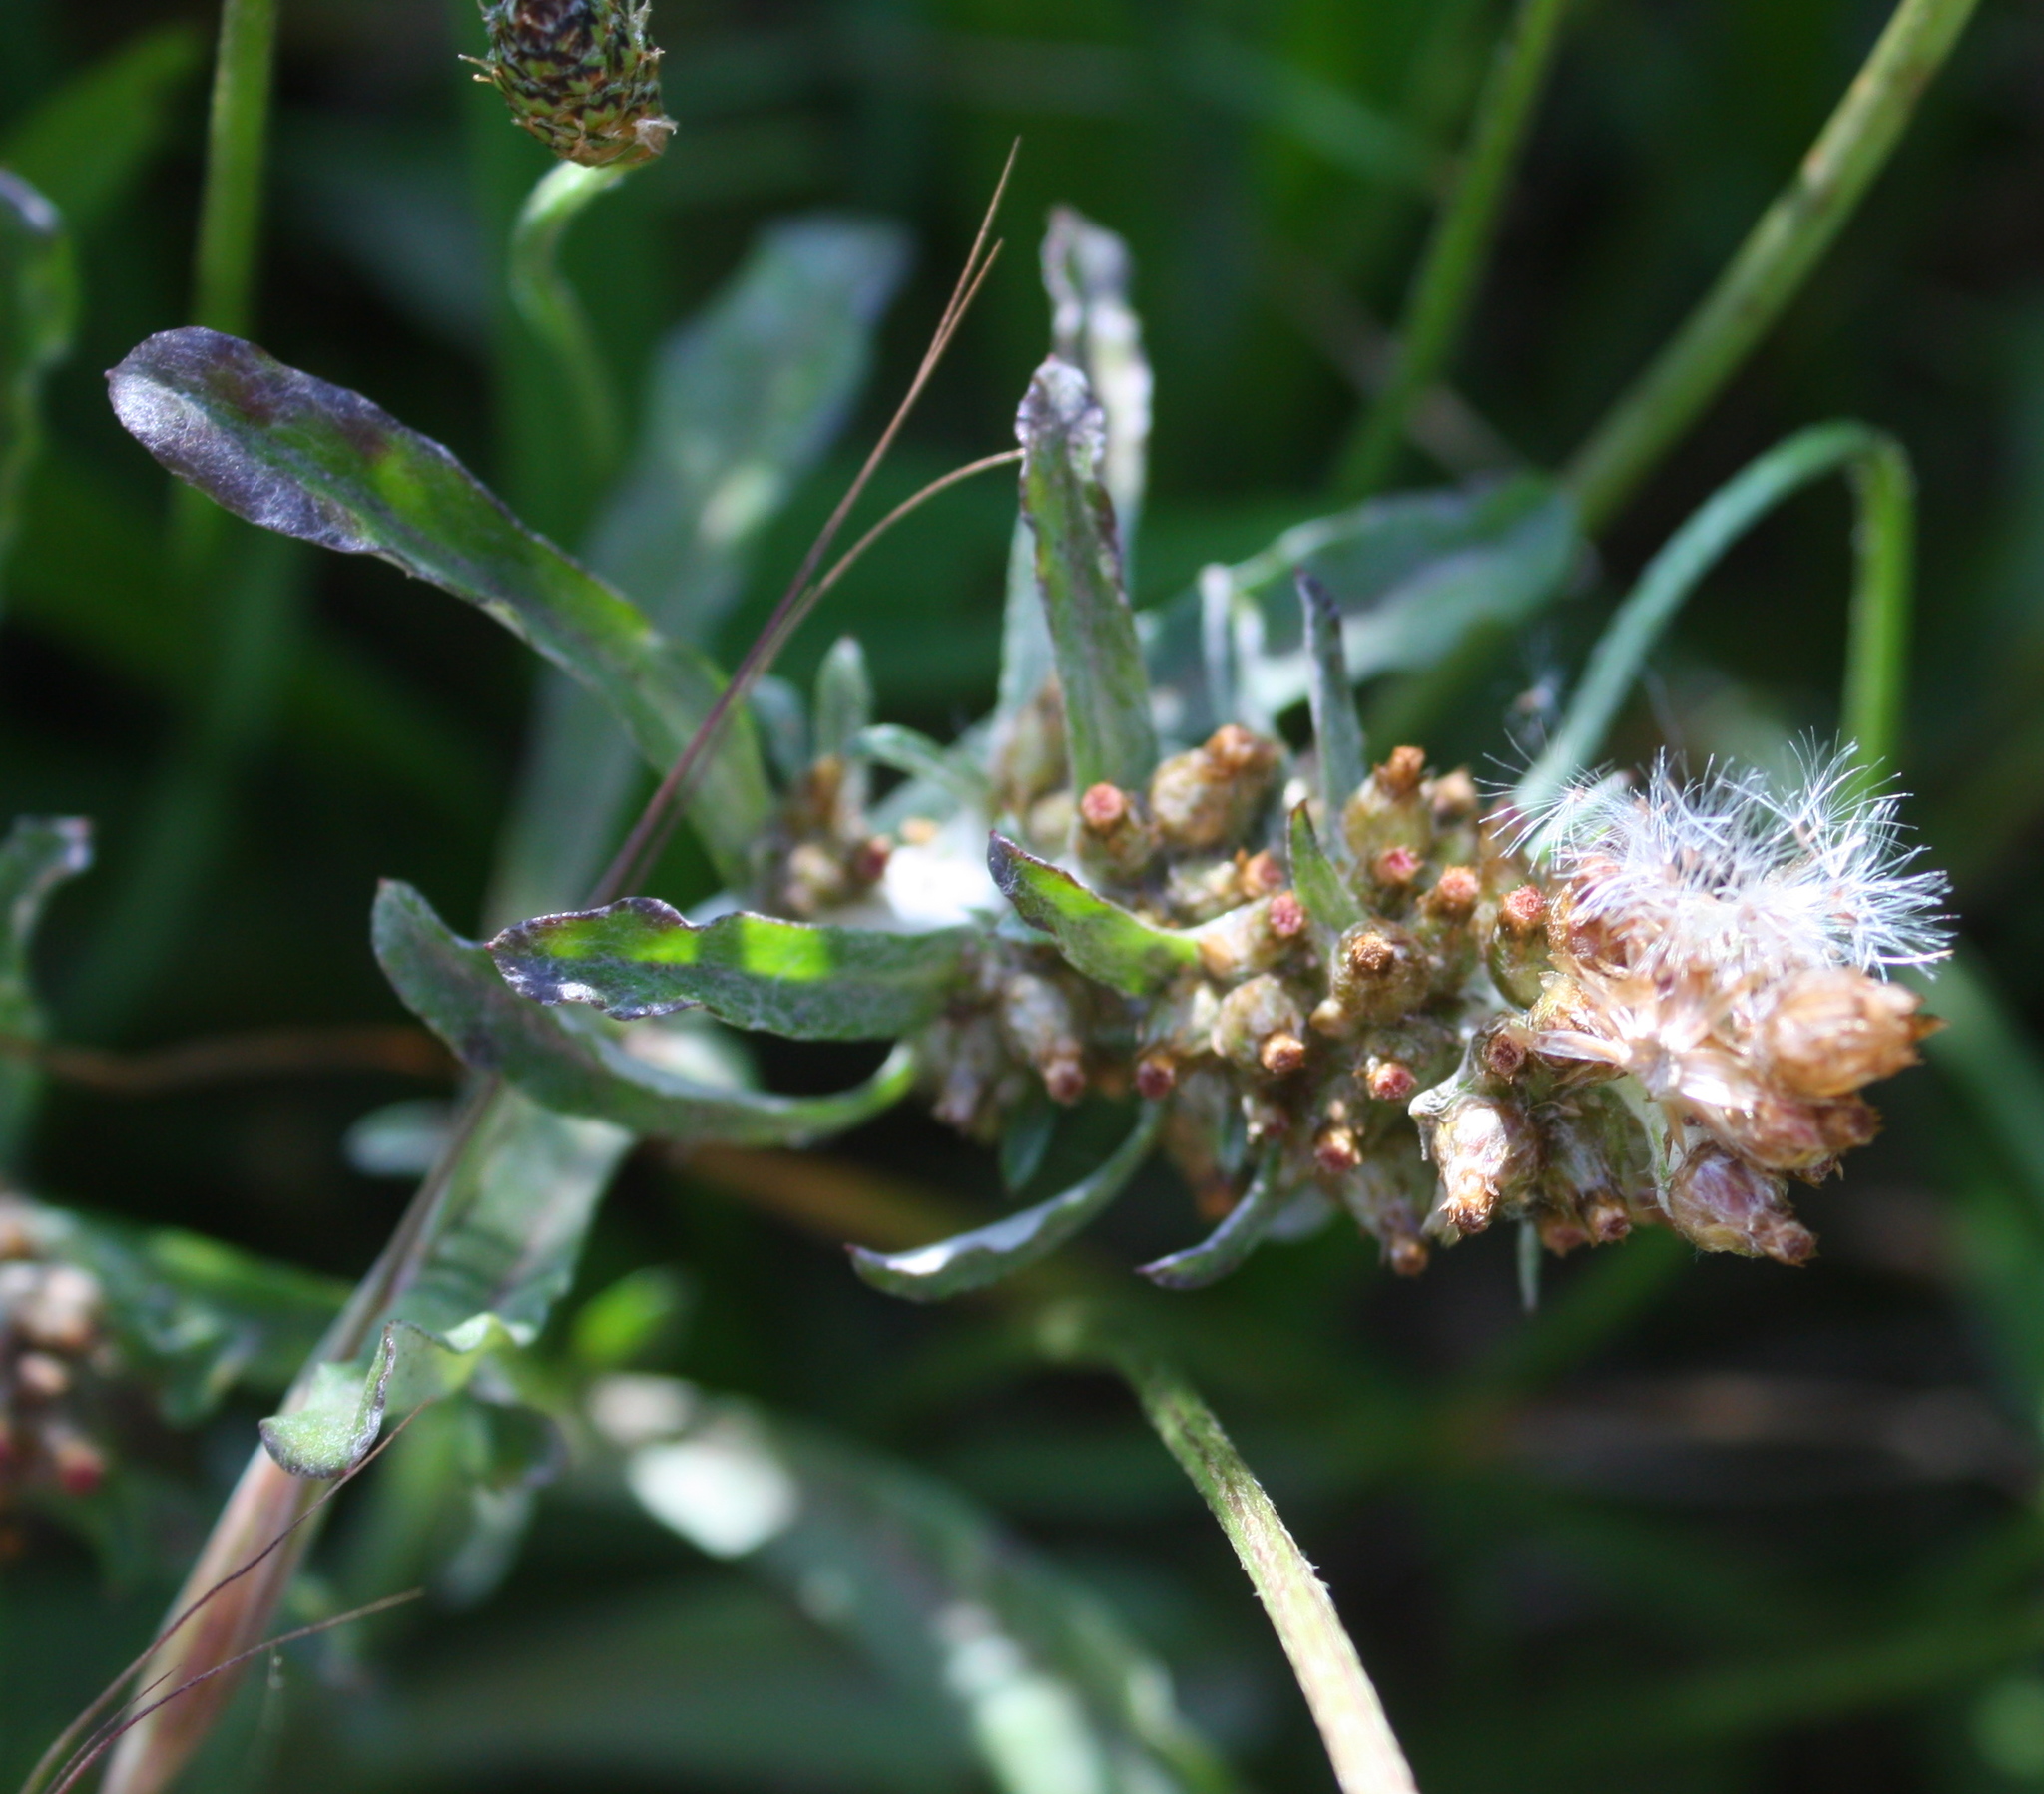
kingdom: Plantae
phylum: Tracheophyta
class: Magnoliopsida
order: Asterales
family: Asteraceae
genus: Gamochaeta
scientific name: Gamochaeta ustulata
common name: Pacific cudweed
